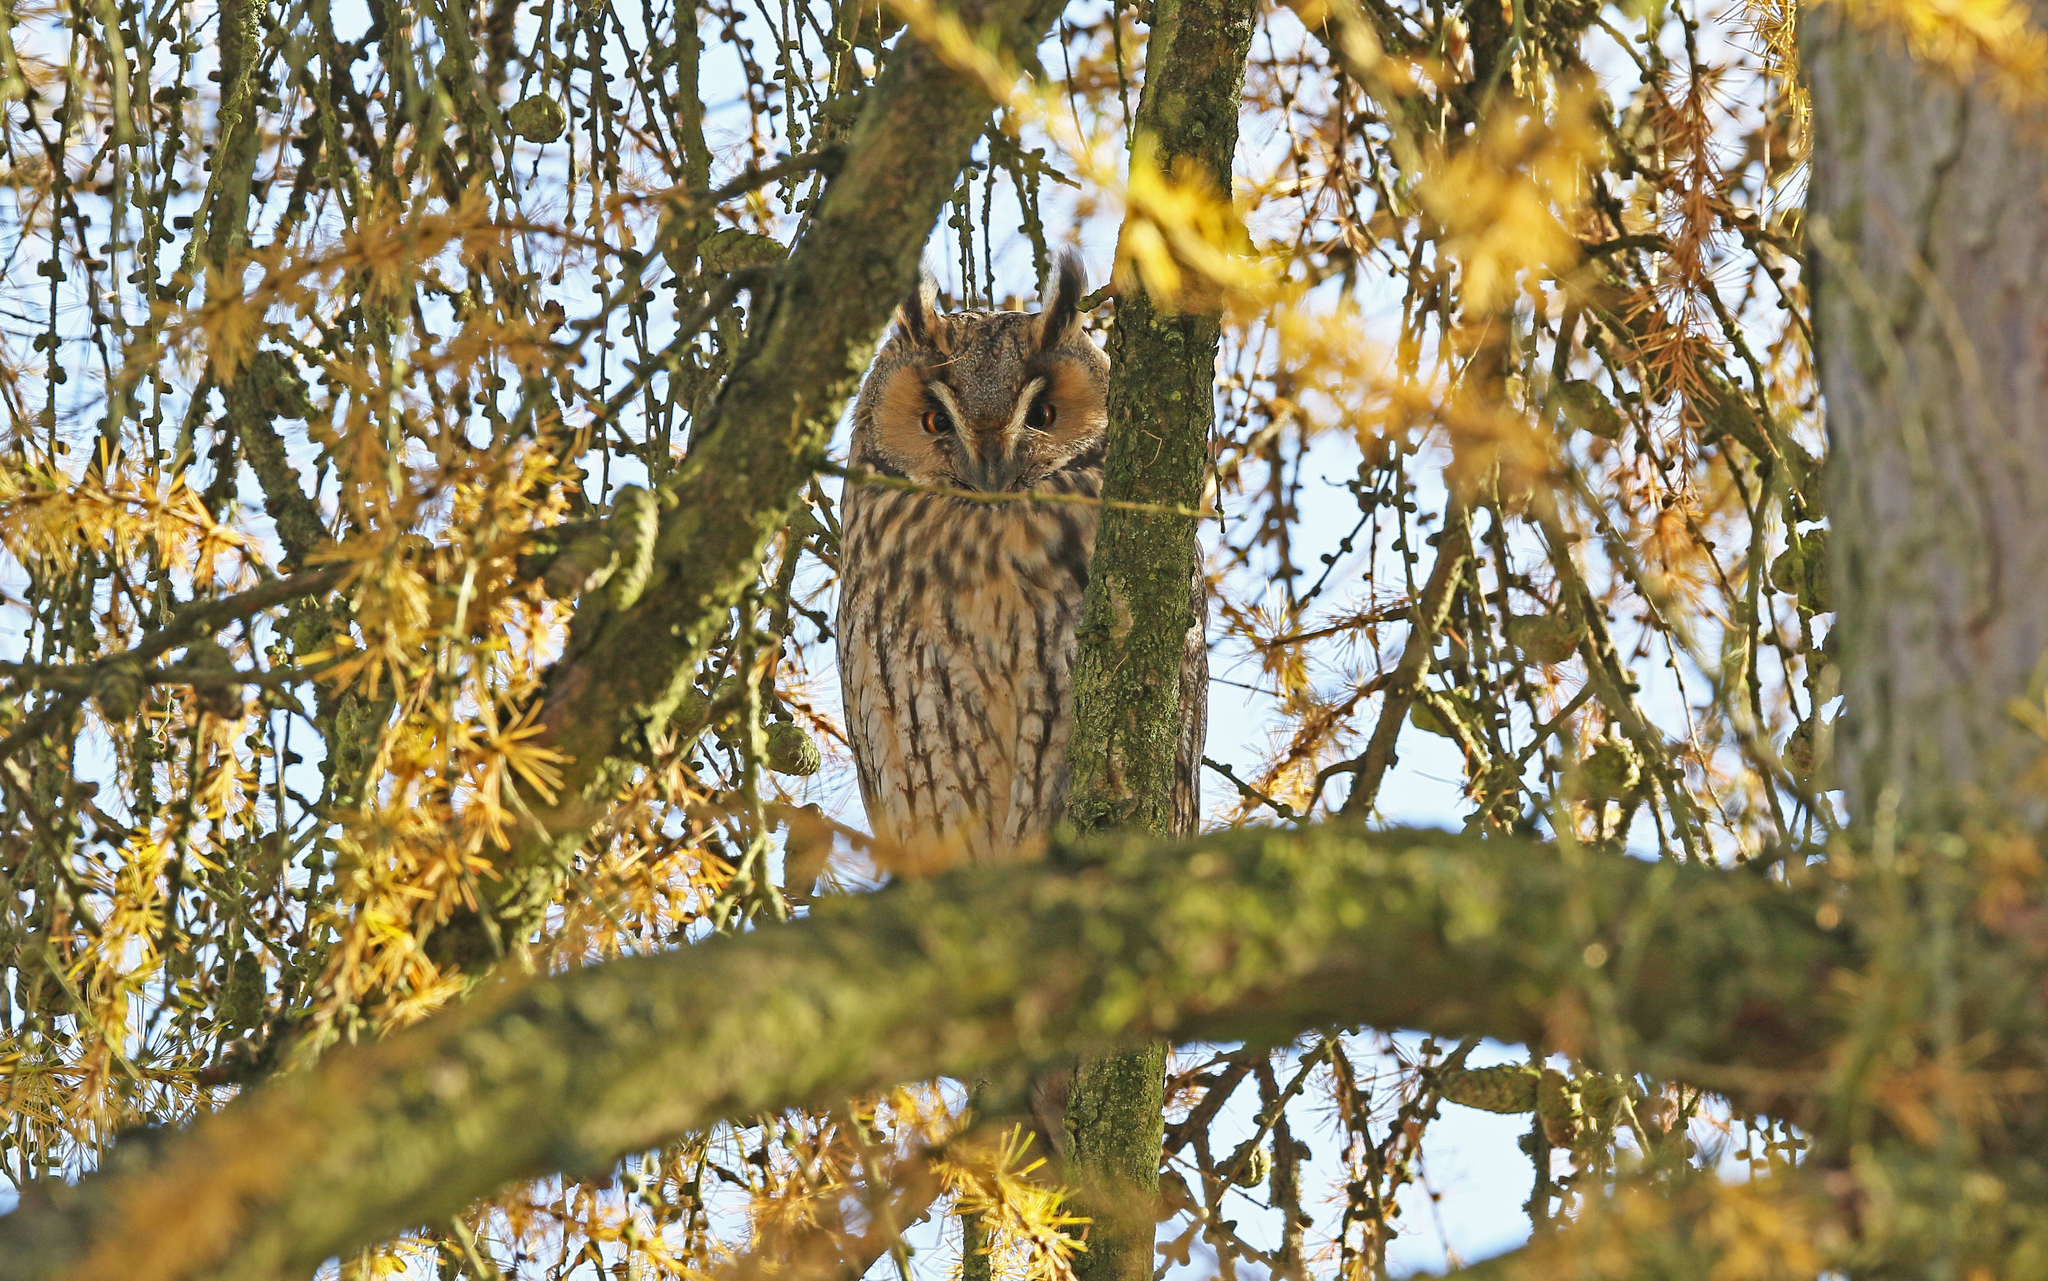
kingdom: Animalia
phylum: Chordata
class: Aves
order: Strigiformes
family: Strigidae
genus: Asio
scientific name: Asio otus
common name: Long-eared owl
